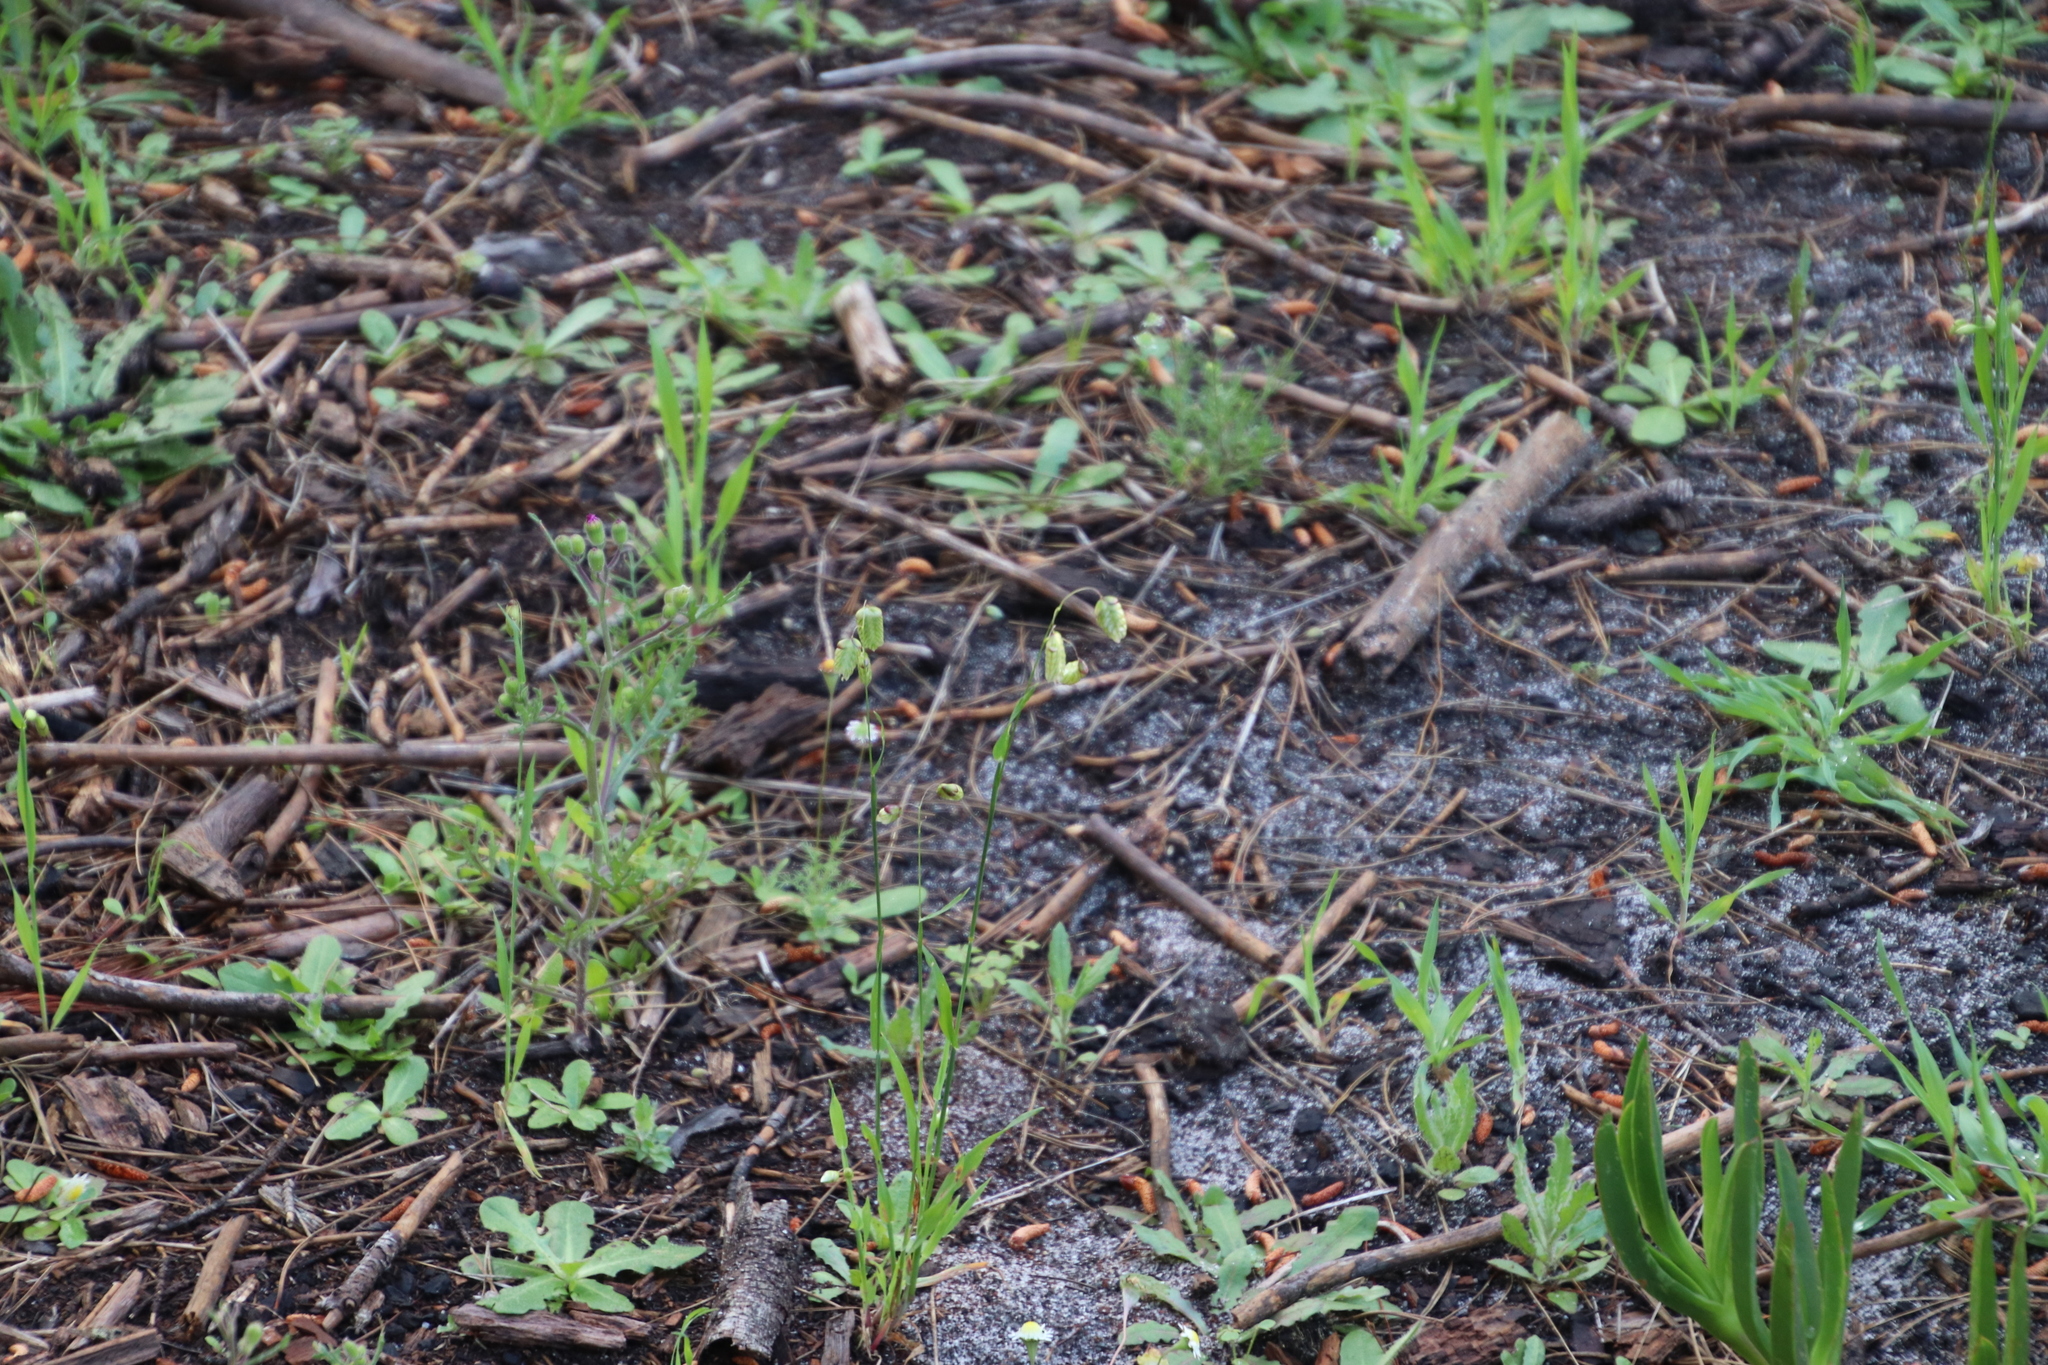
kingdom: Plantae
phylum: Tracheophyta
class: Liliopsida
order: Poales
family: Poaceae
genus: Briza
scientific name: Briza maxima
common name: Big quakinggrass
